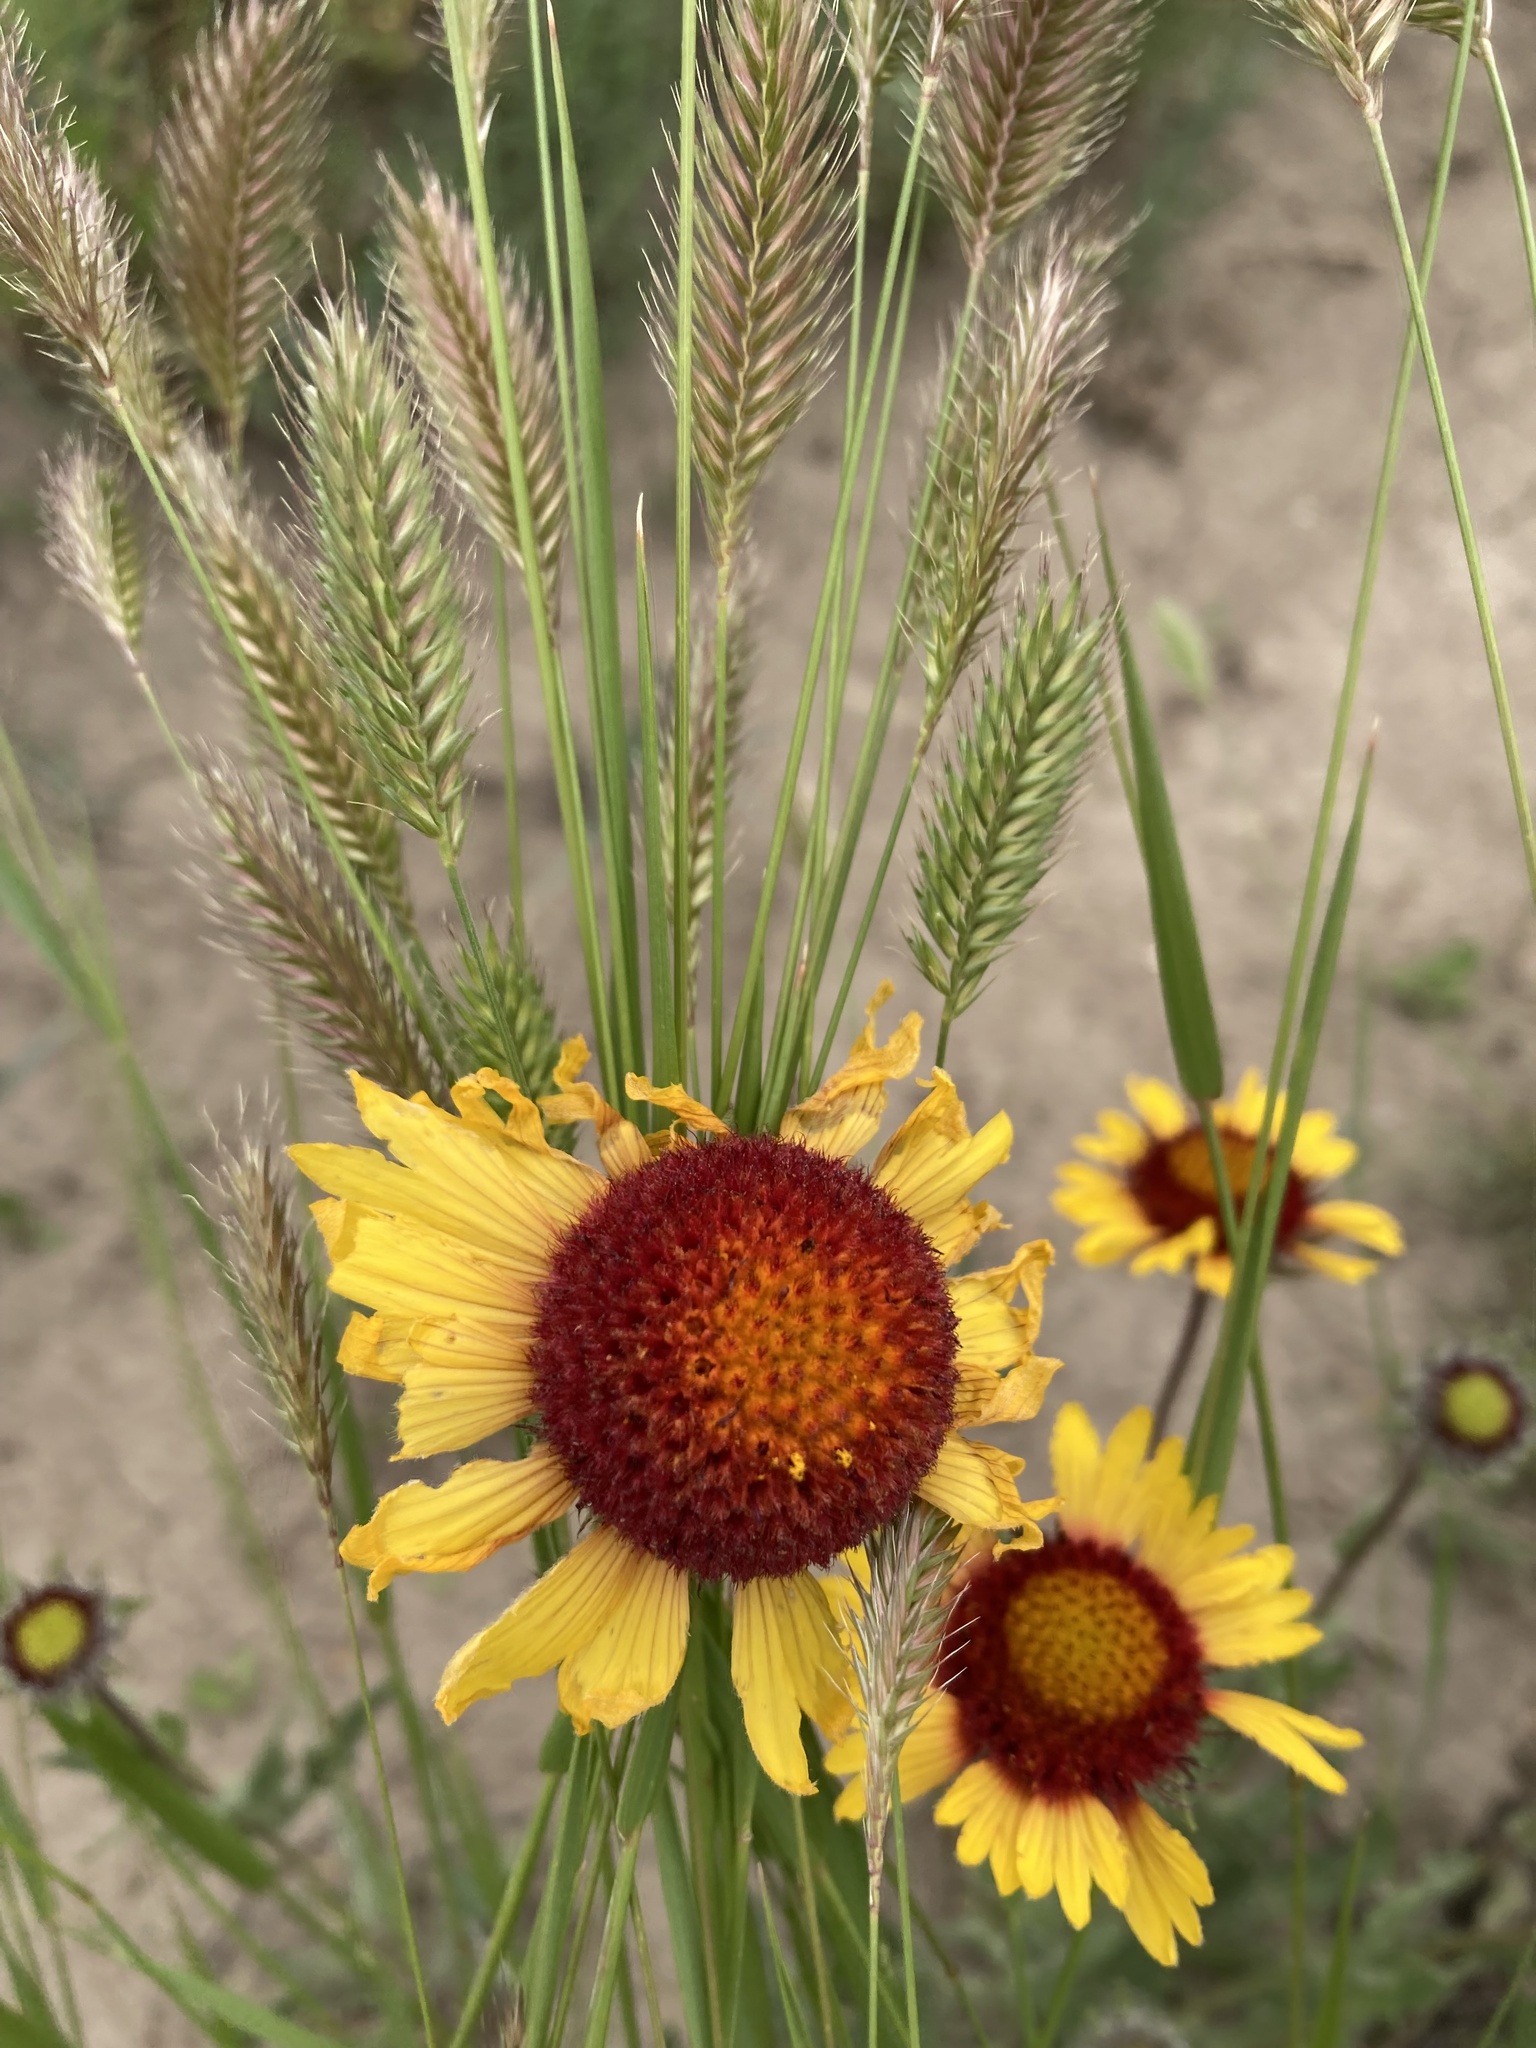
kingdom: Plantae
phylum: Tracheophyta
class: Magnoliopsida
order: Asterales
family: Asteraceae
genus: Gaillardia
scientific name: Gaillardia aristata
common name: Blanket-flower
